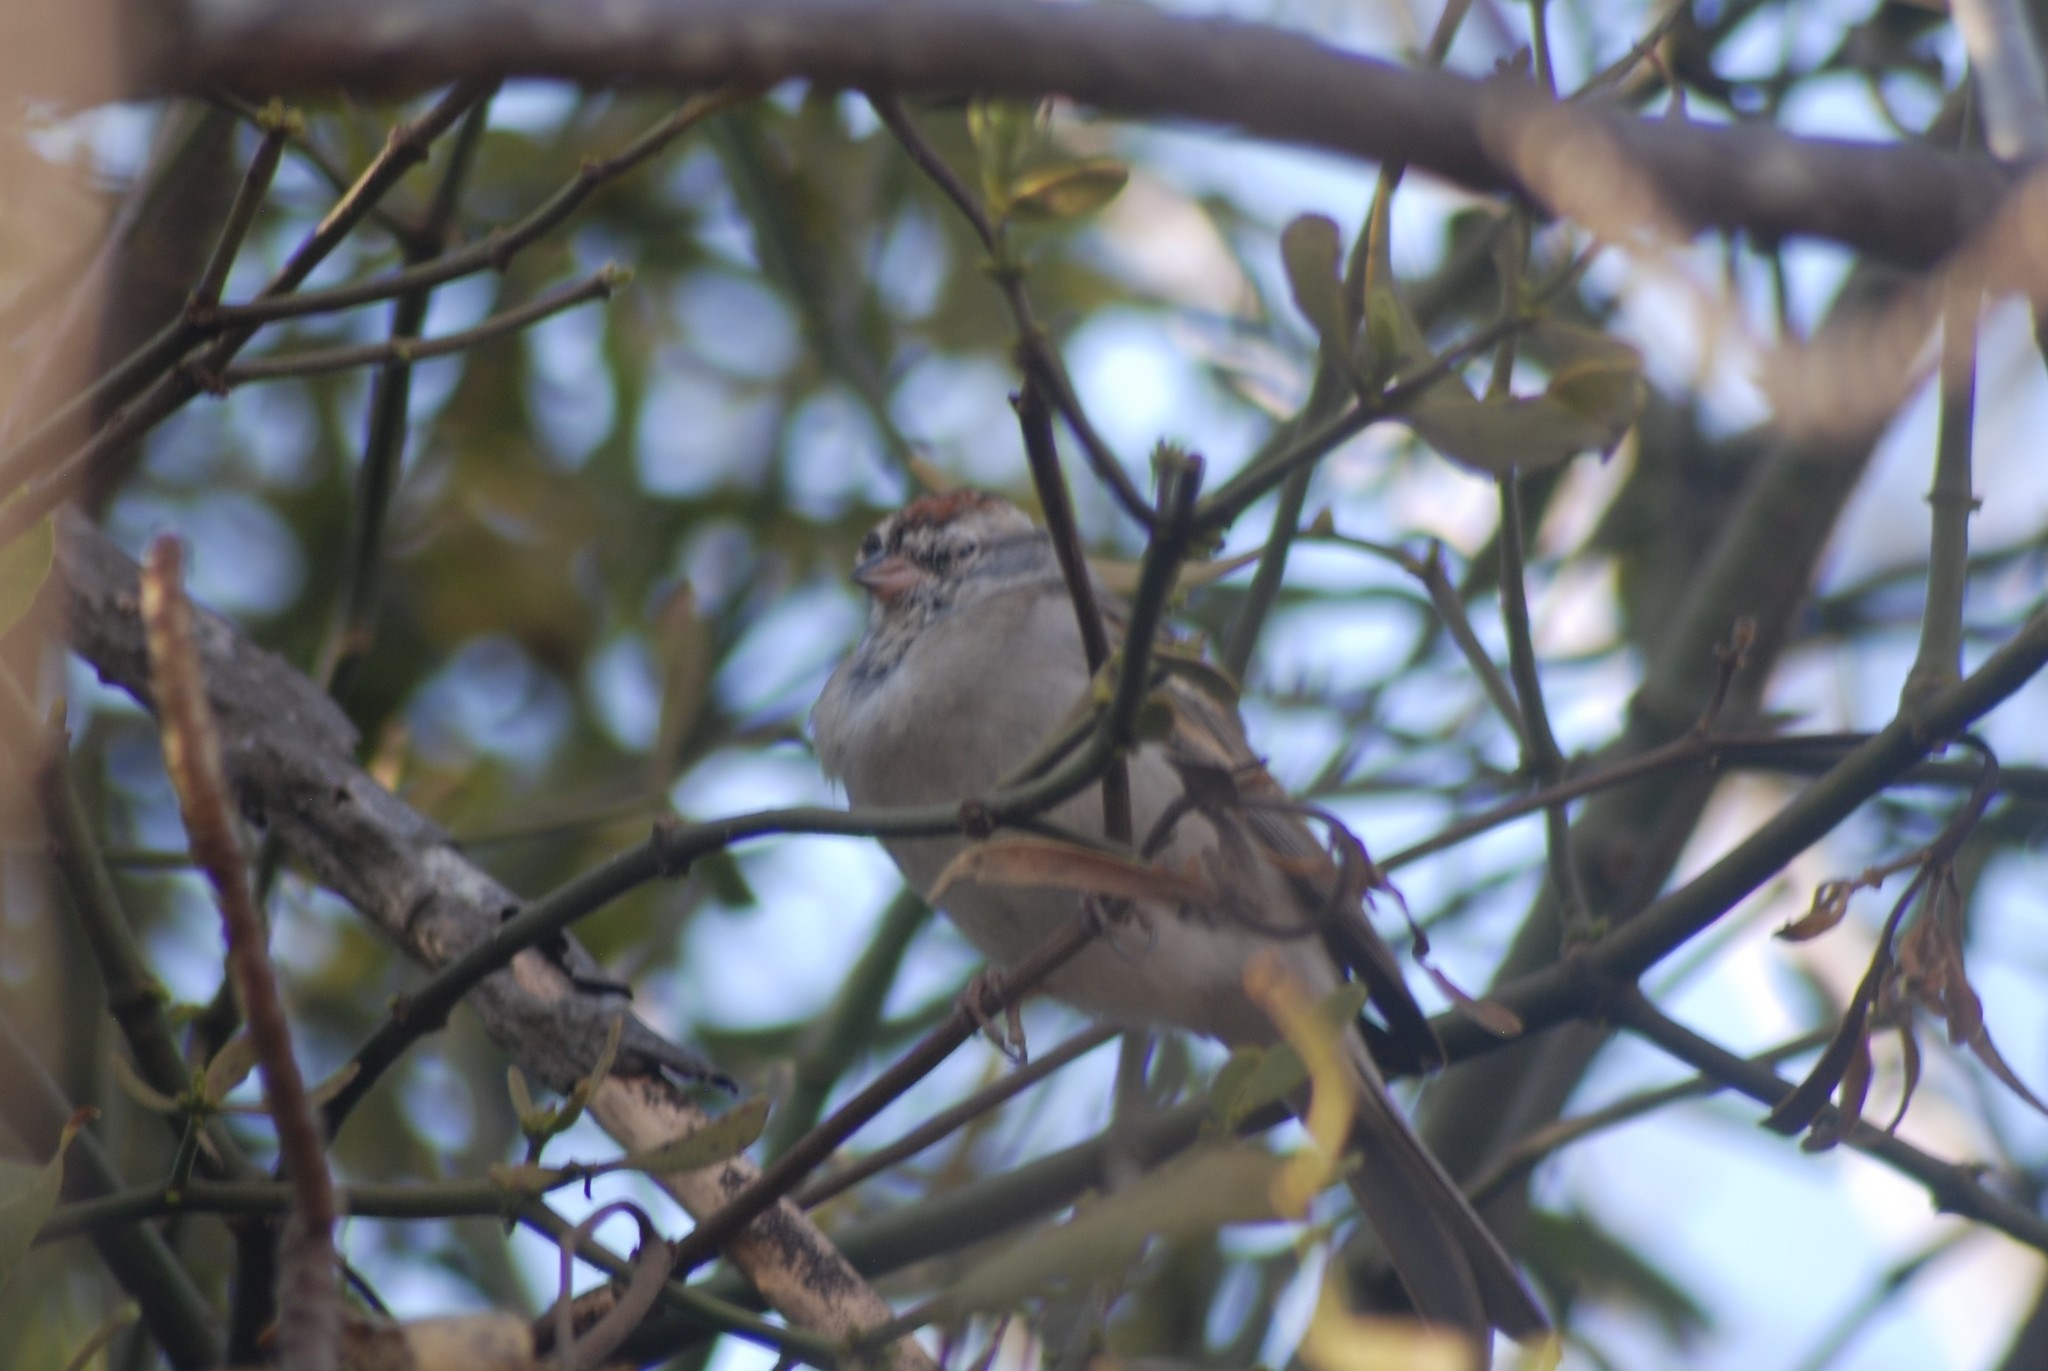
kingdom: Animalia
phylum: Chordata
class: Aves
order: Passeriformes
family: Passerellidae
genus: Spizella
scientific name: Spizella passerina
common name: Chipping sparrow
